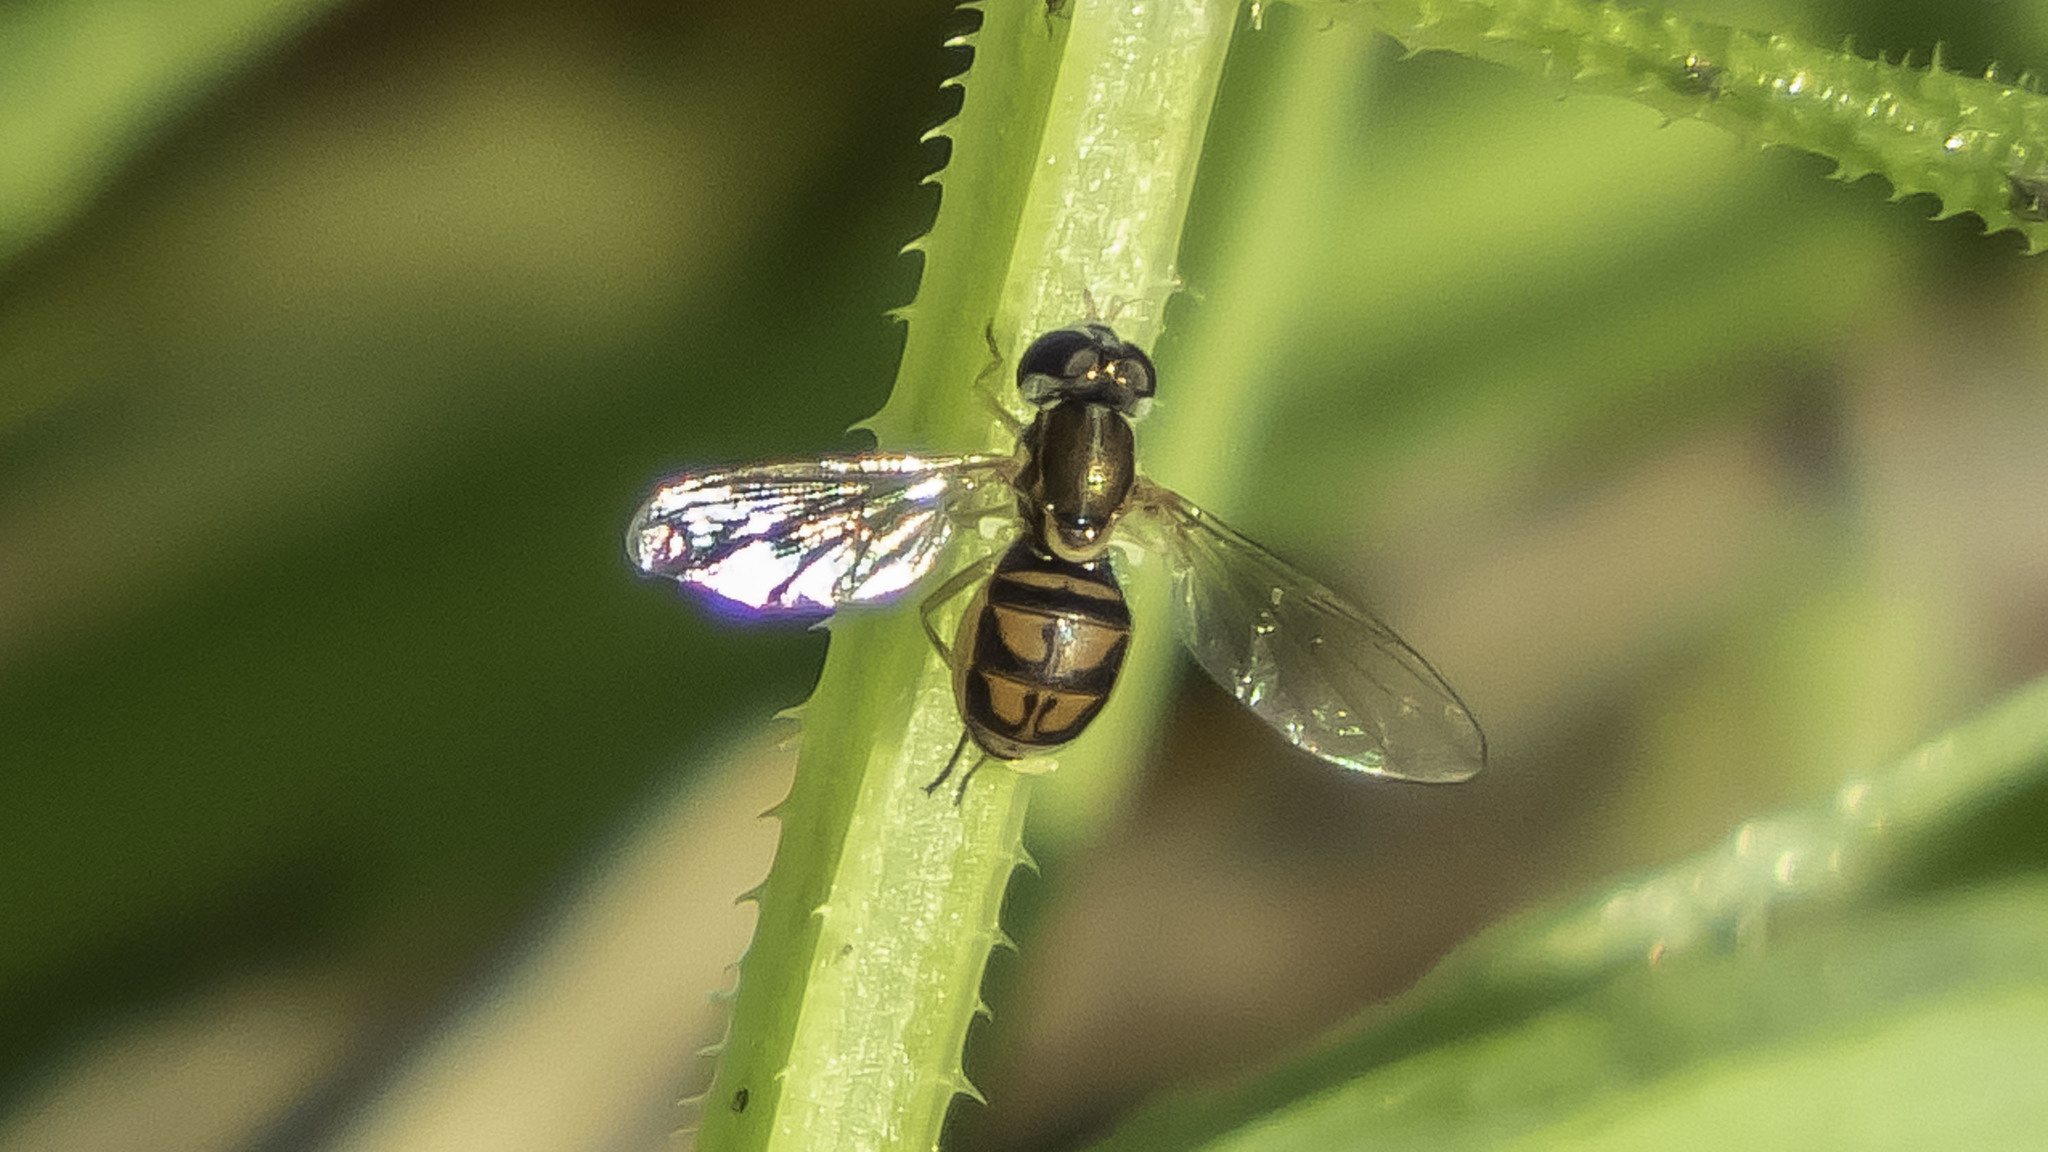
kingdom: Animalia
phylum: Arthropoda
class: Insecta
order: Diptera
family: Syrphidae
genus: Toxomerus
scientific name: Toxomerus marginatus
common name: Syrphid fly
